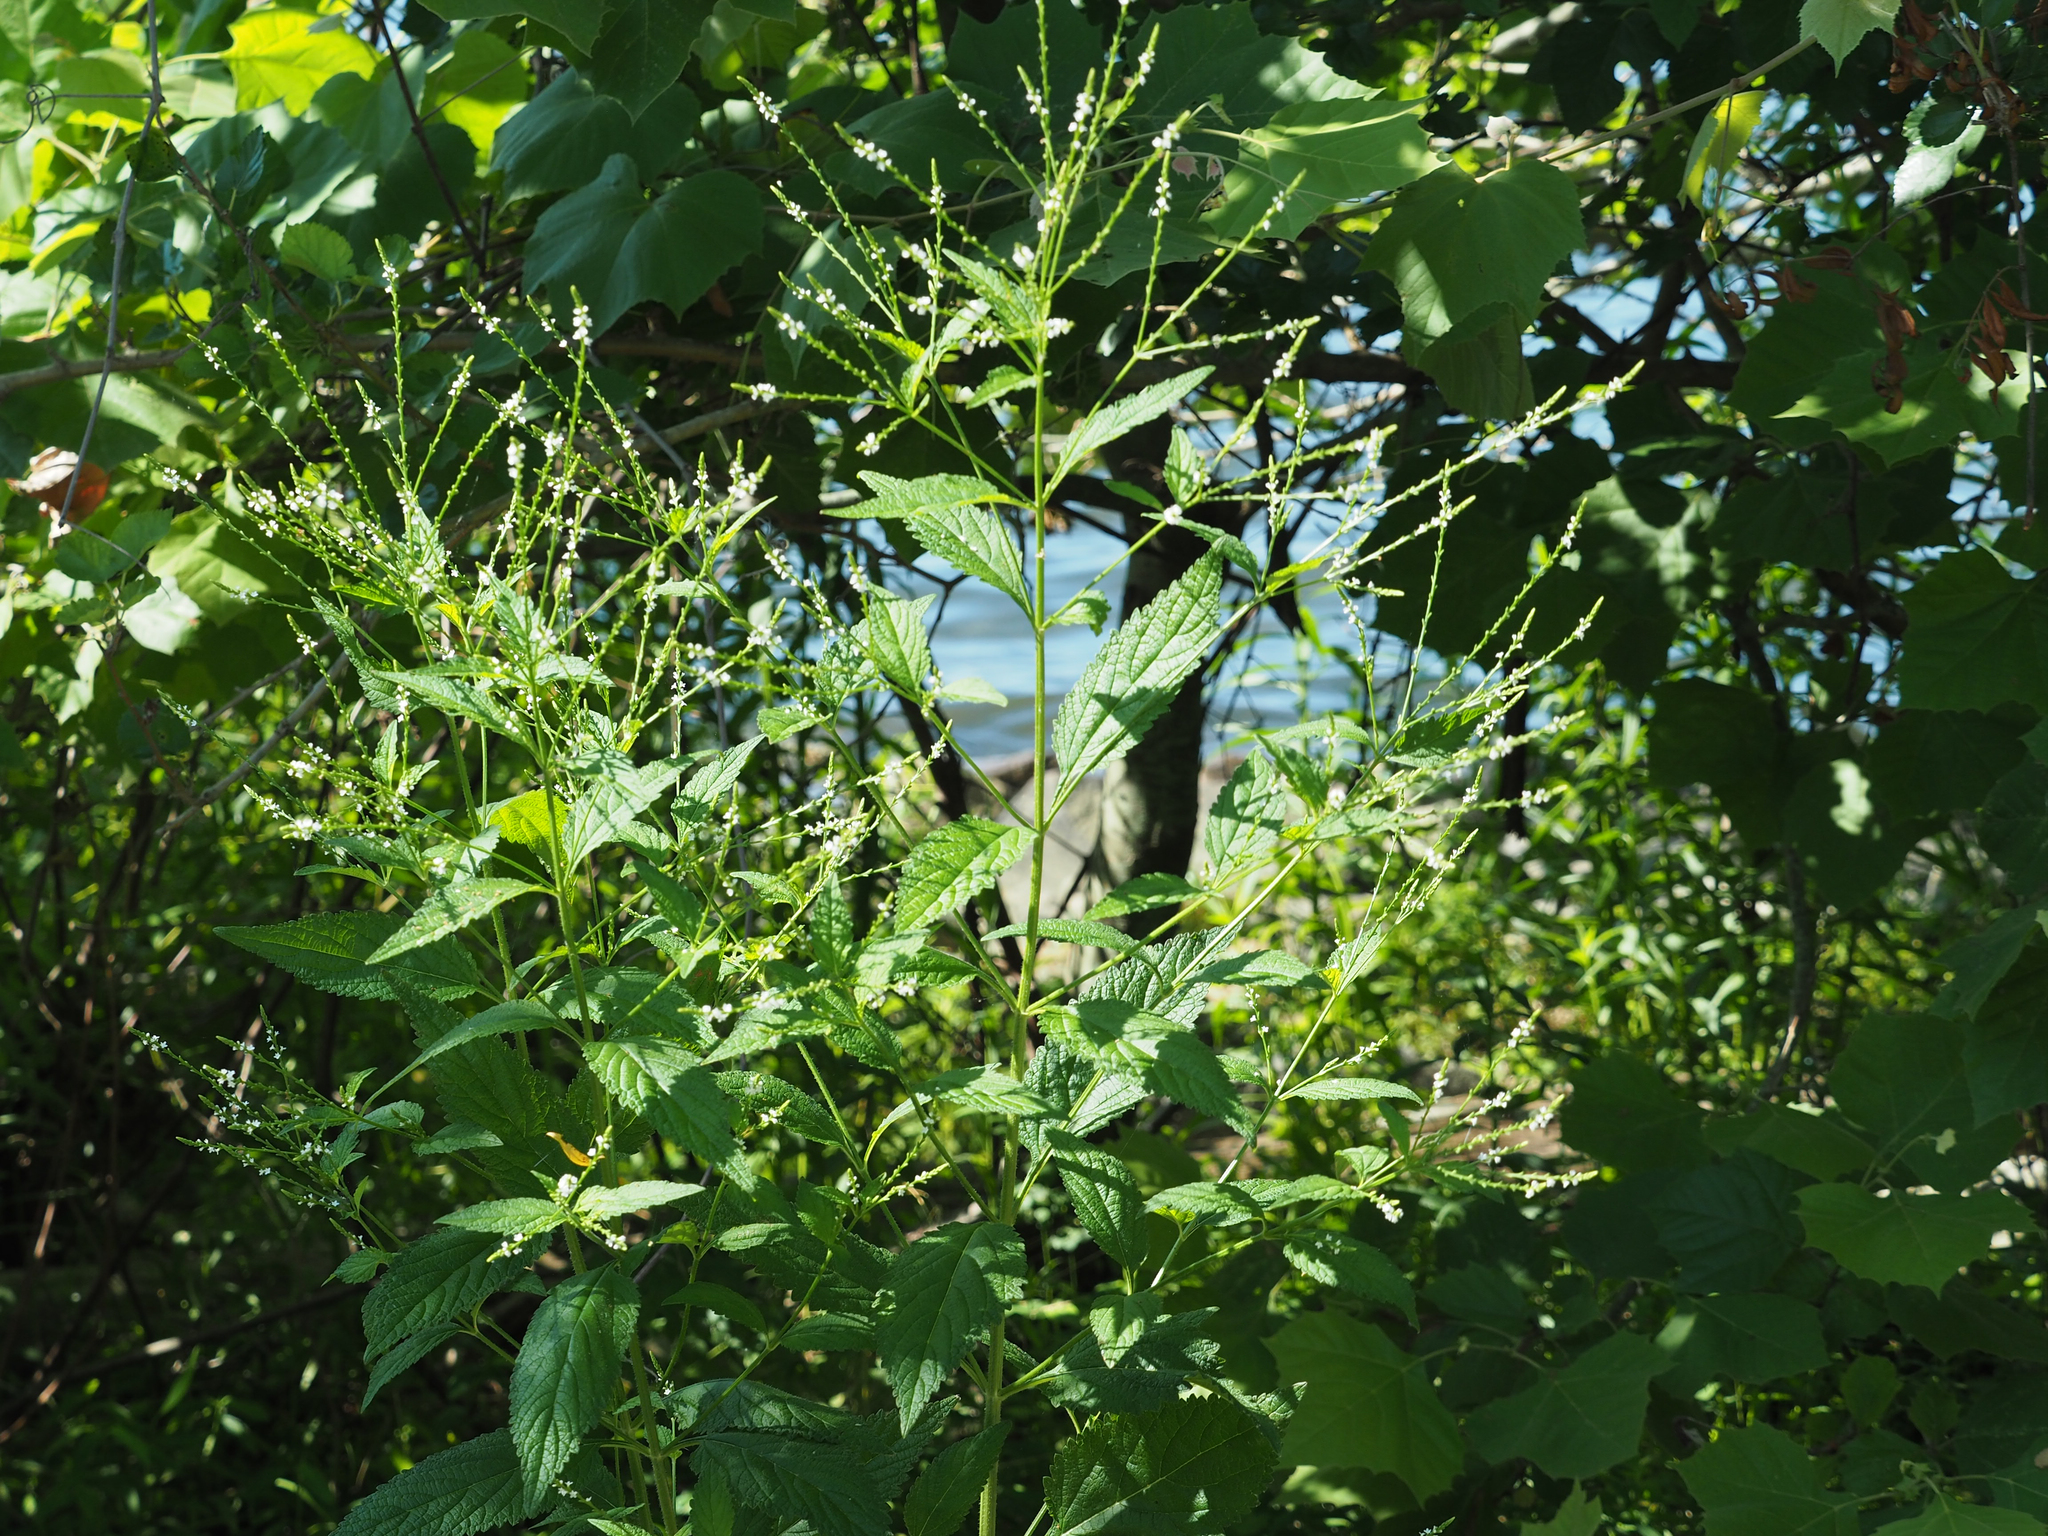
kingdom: Plantae
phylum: Tracheophyta
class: Magnoliopsida
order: Lamiales
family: Verbenaceae
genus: Verbena
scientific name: Verbena urticifolia
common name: Nettle-leaved vervain
